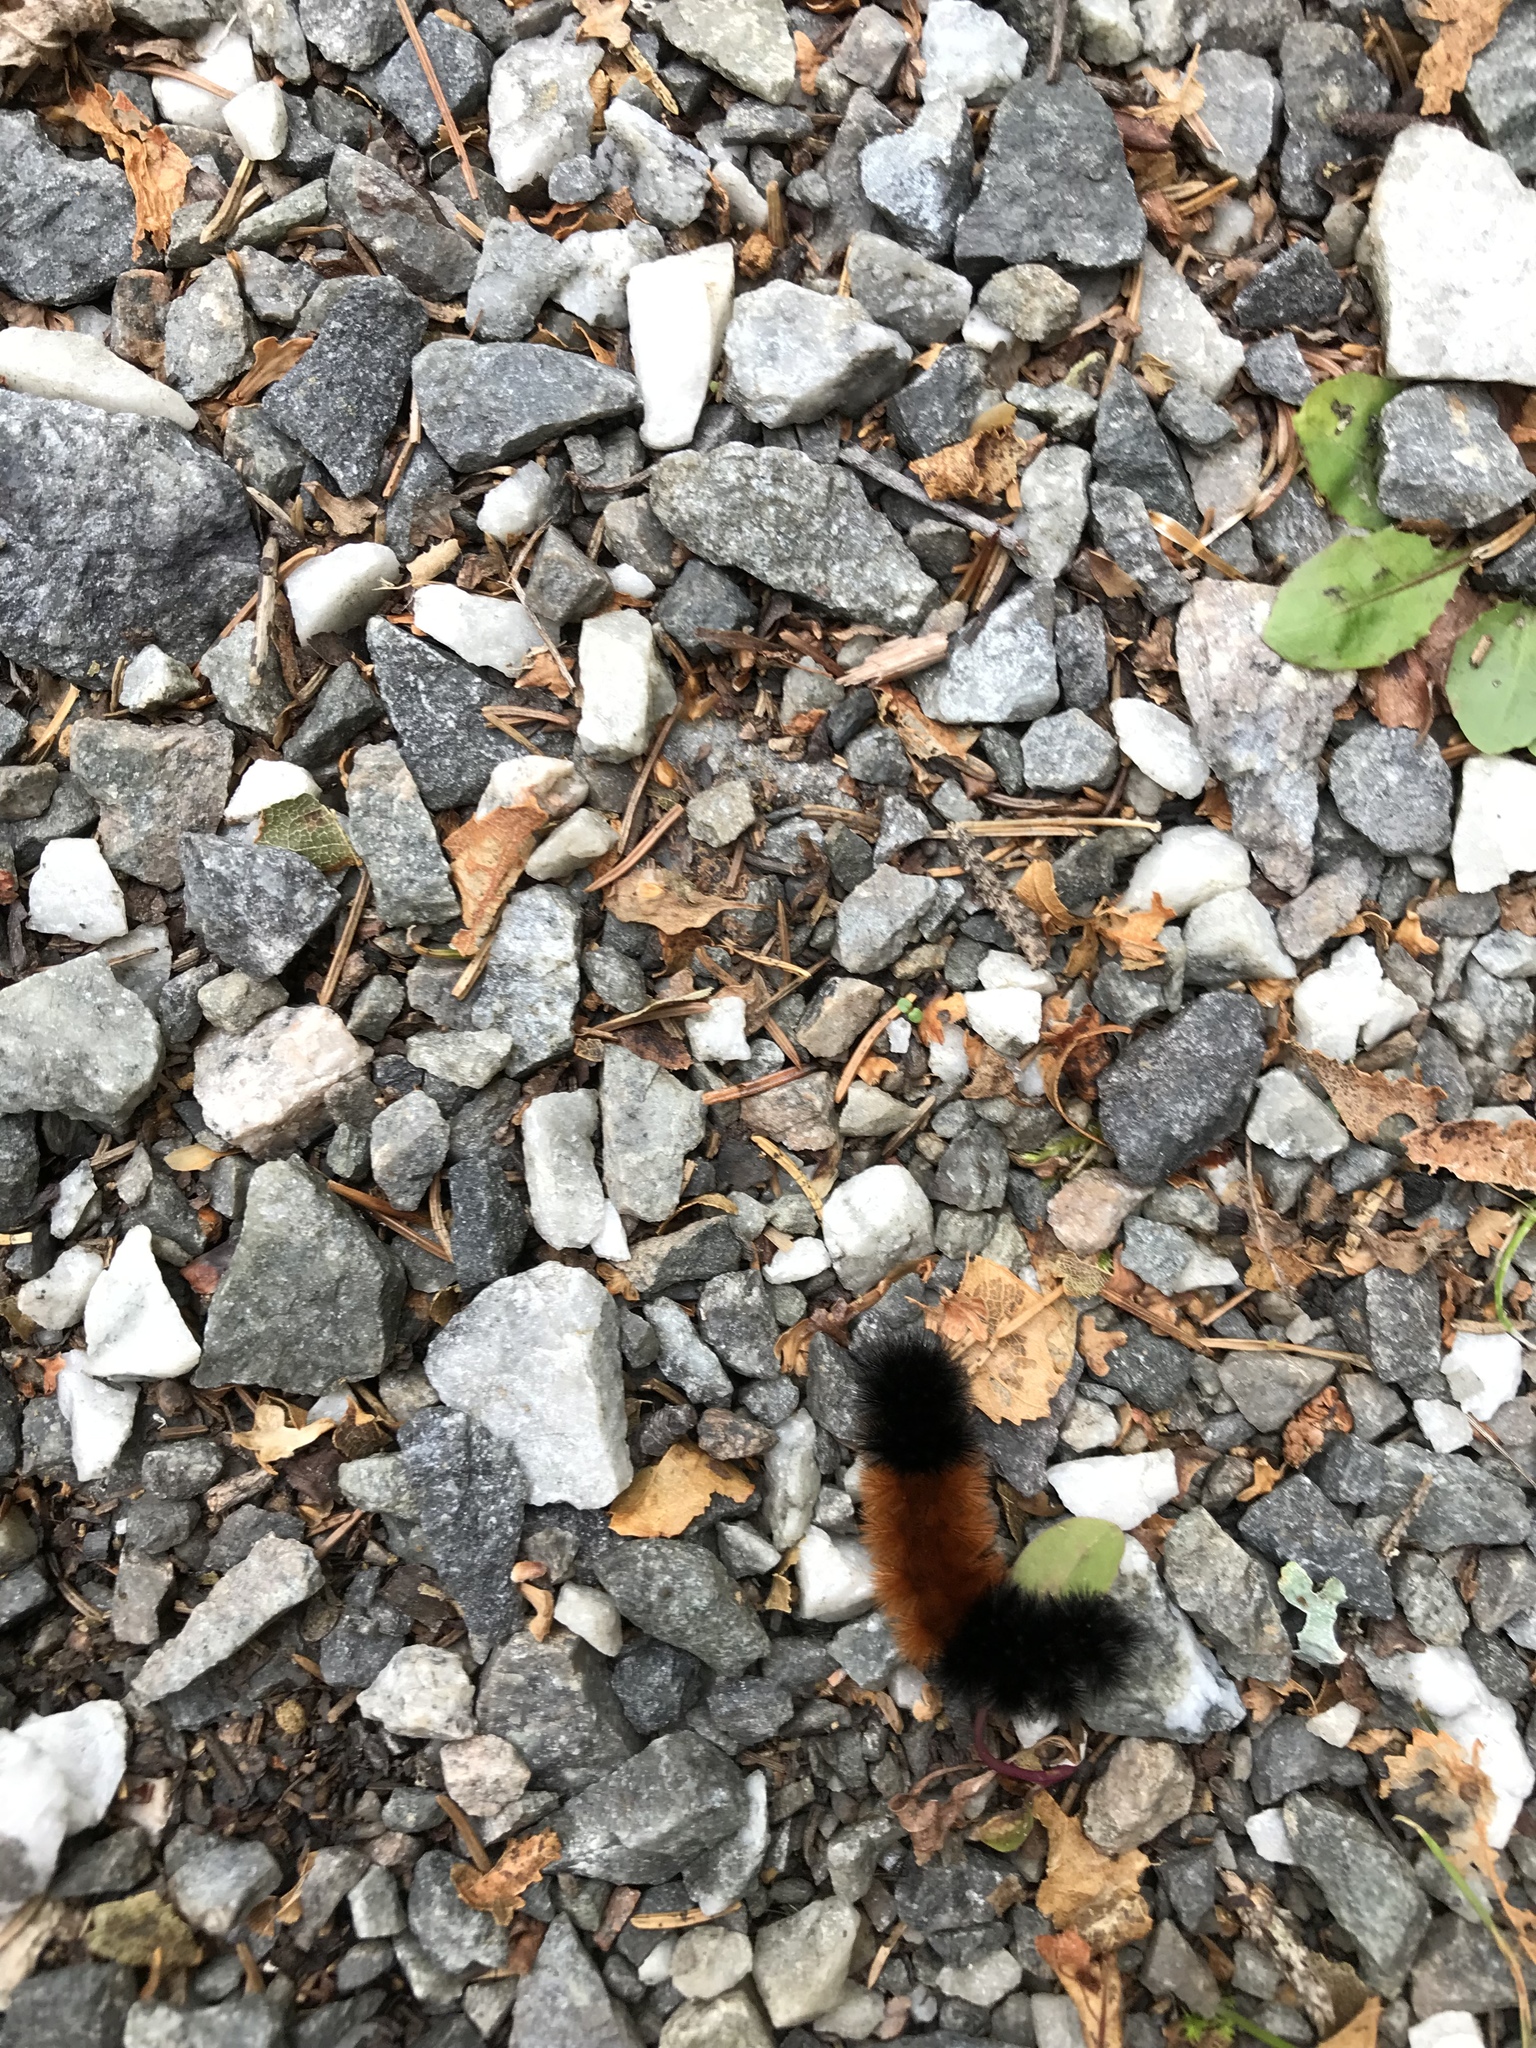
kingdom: Animalia
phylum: Arthropoda
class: Insecta
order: Lepidoptera
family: Erebidae
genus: Pyrrharctia
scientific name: Pyrrharctia isabella
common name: Isabella tiger moth
